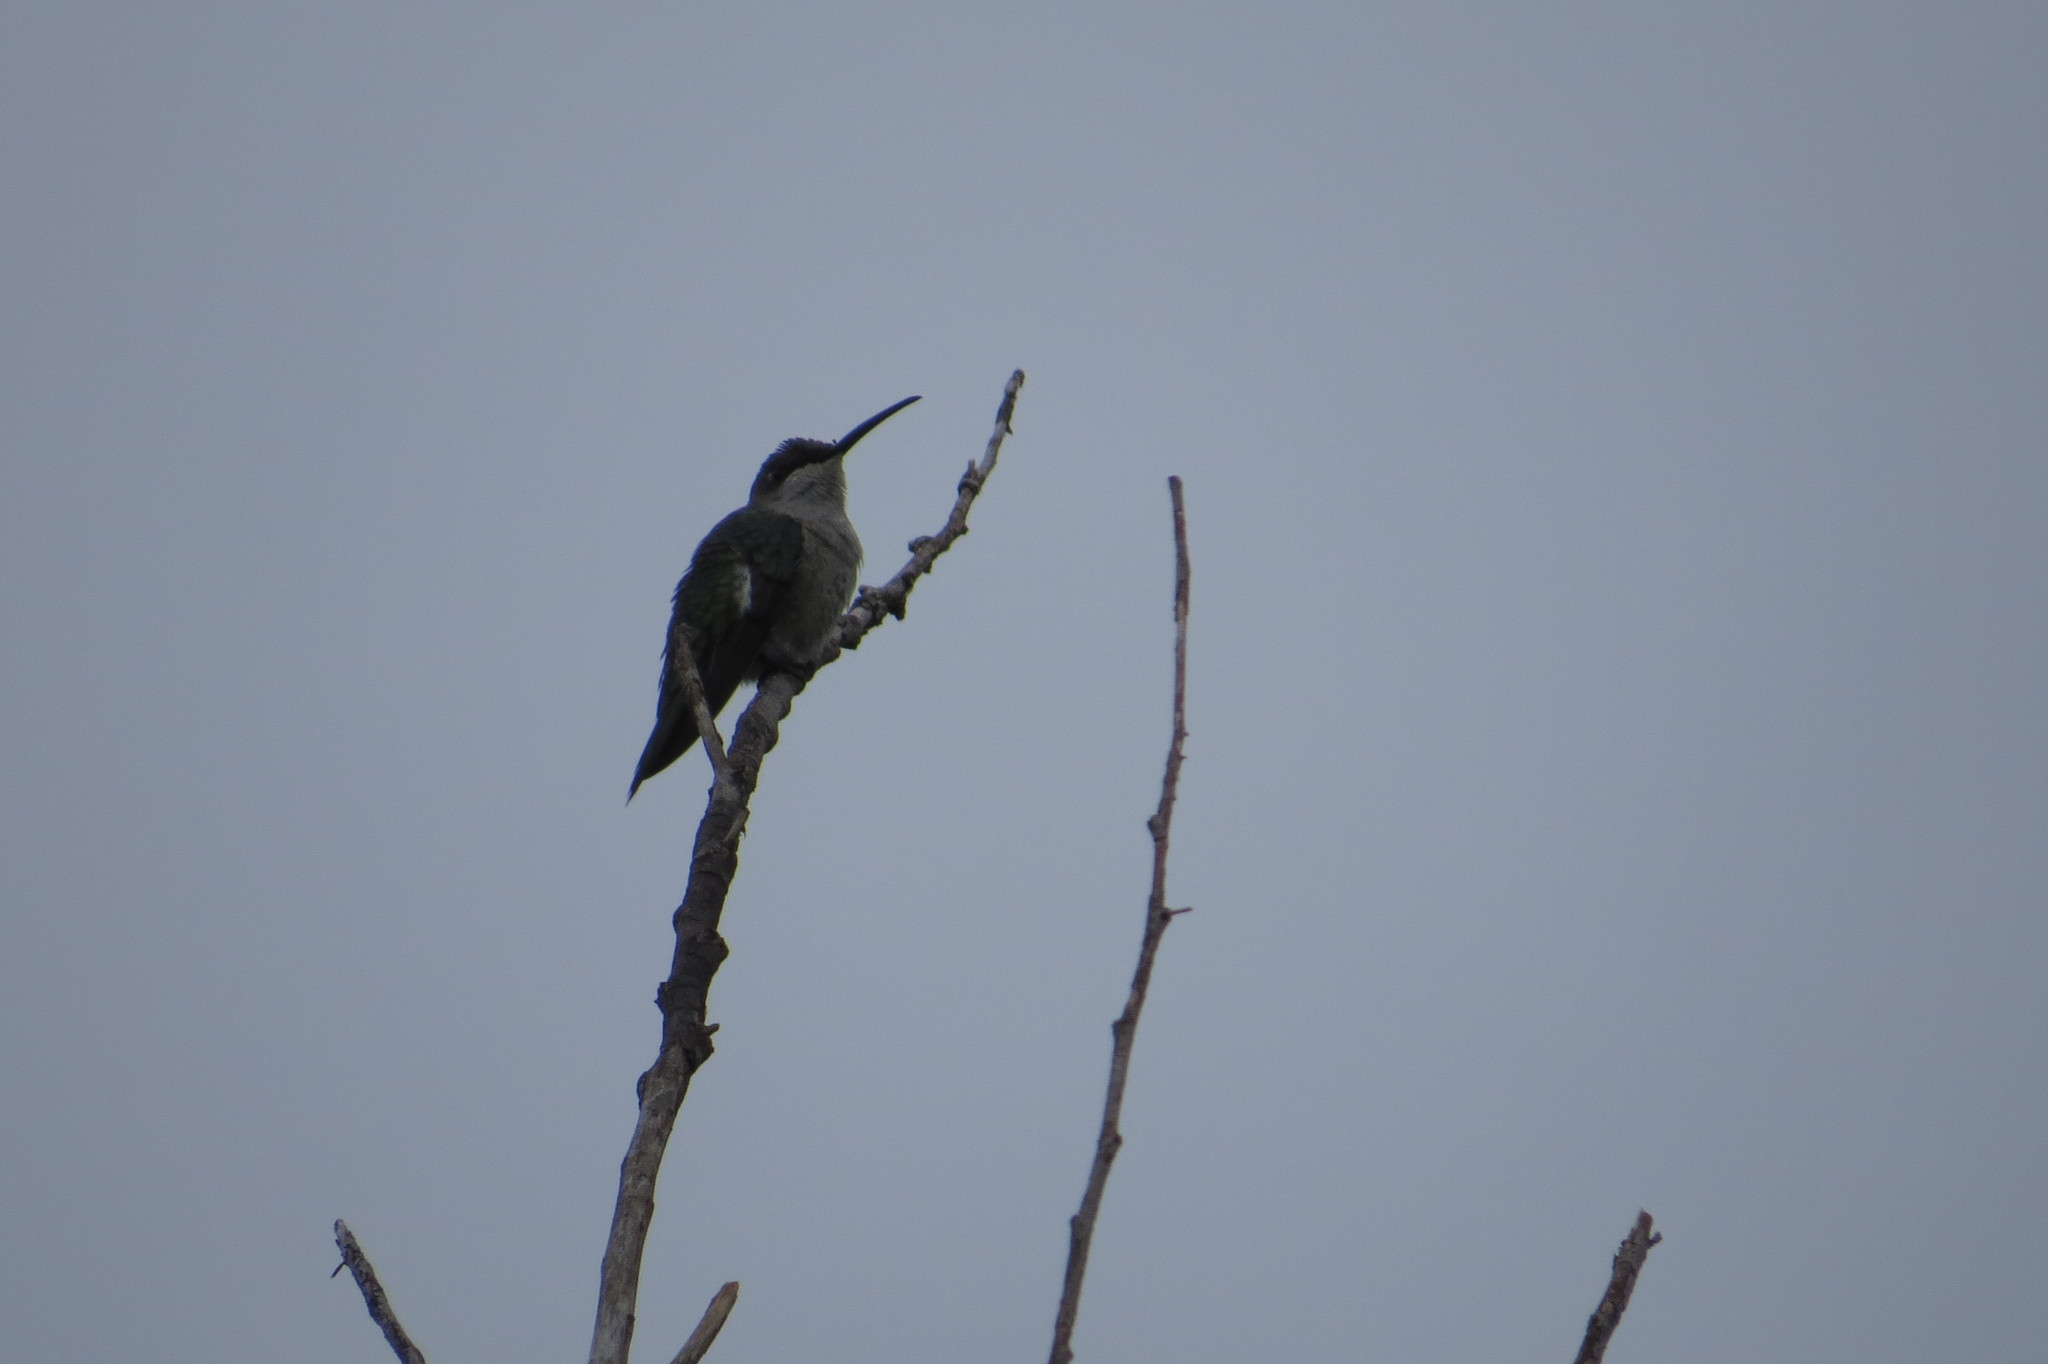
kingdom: Animalia
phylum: Chordata
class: Aves
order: Apodiformes
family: Trochilidae
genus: Heliomaster
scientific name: Heliomaster furcifer
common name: Blue-tufted starthroat
